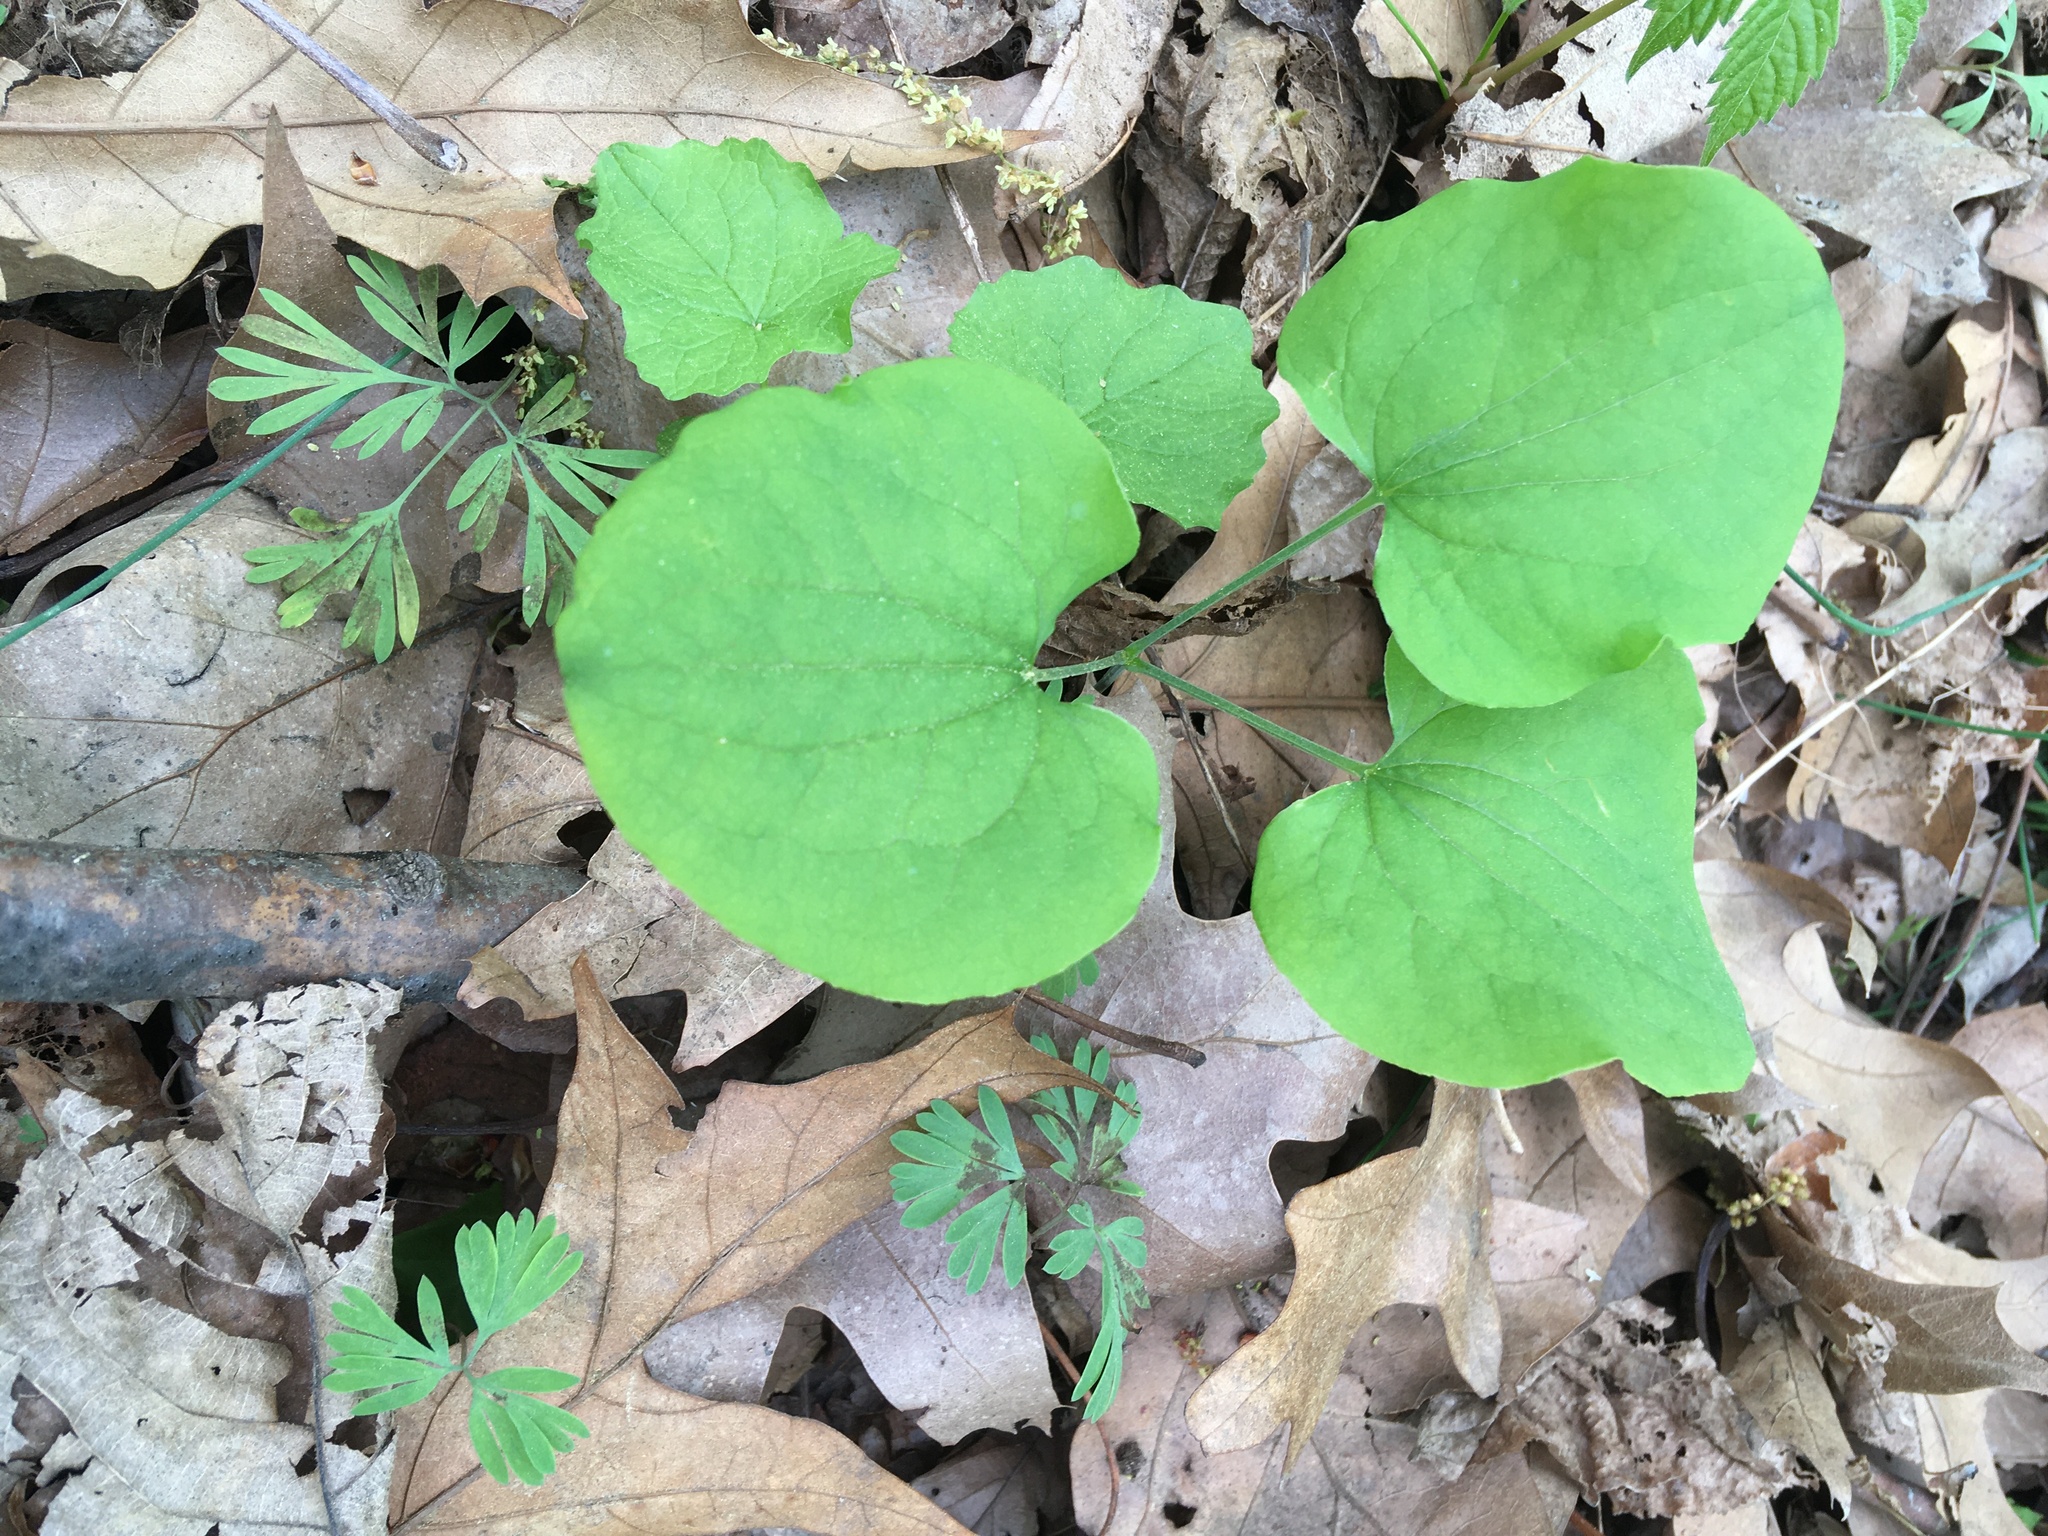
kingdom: Plantae
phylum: Tracheophyta
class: Liliopsida
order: Liliales
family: Smilacaceae
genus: Smilax
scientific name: Smilax herbacea
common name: Jacob's-ladder
